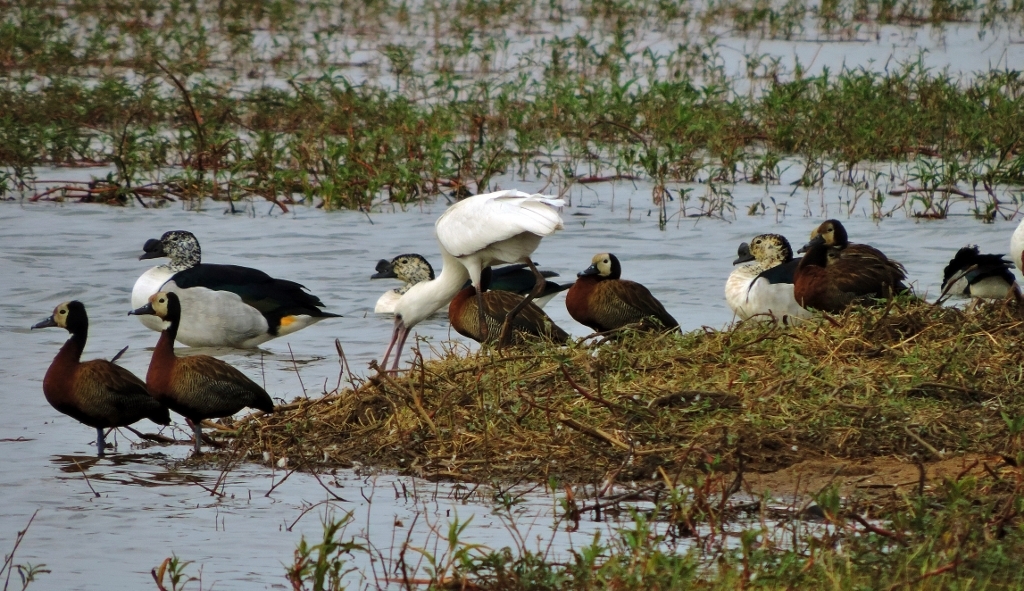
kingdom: Animalia
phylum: Chordata
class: Aves
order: Pelecaniformes
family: Threskiornithidae
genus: Platalea
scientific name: Platalea alba
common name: African spoonbill
